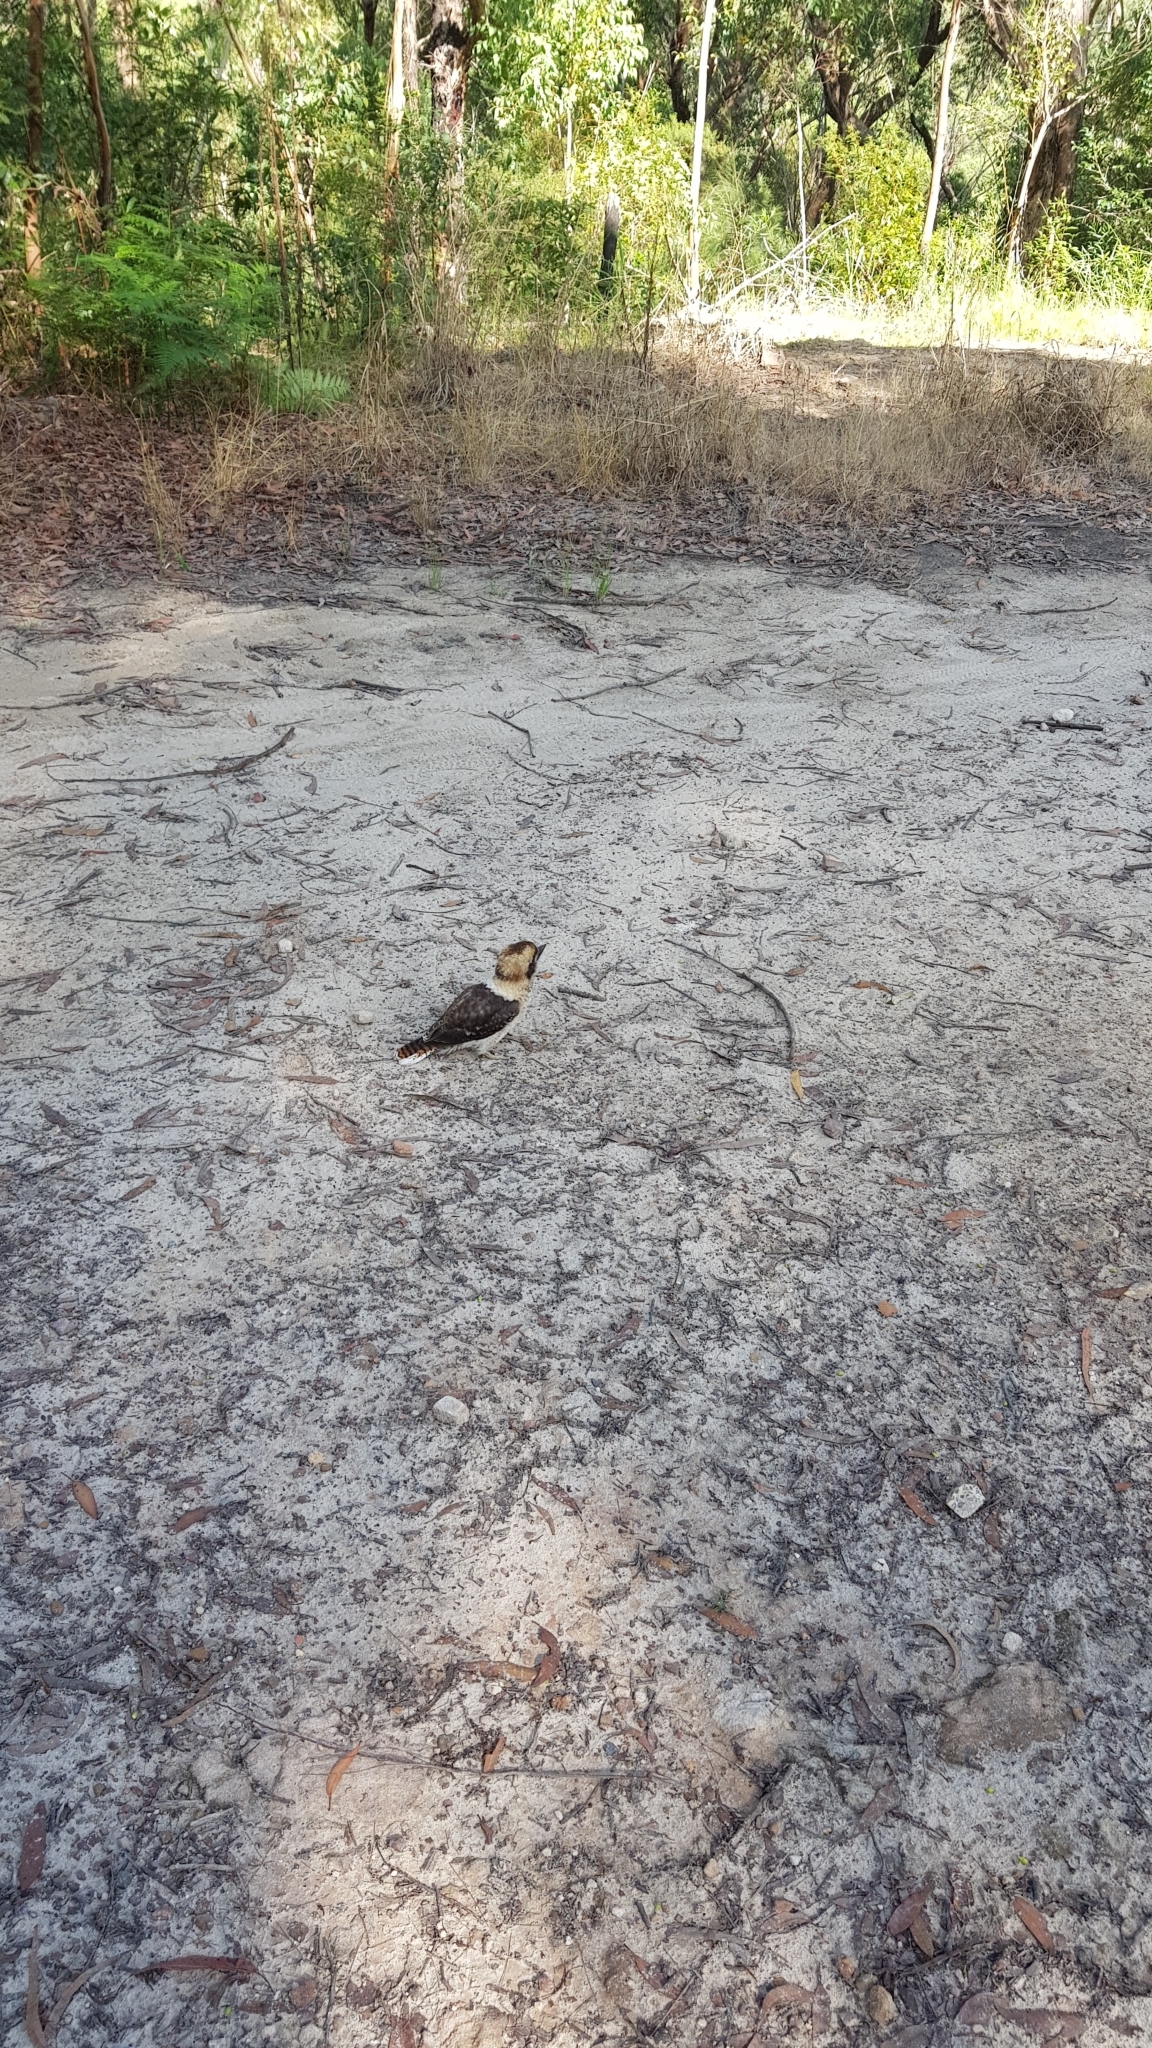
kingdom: Animalia
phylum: Chordata
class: Aves
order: Coraciiformes
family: Alcedinidae
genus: Dacelo
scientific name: Dacelo novaeguineae
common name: Laughing kookaburra
